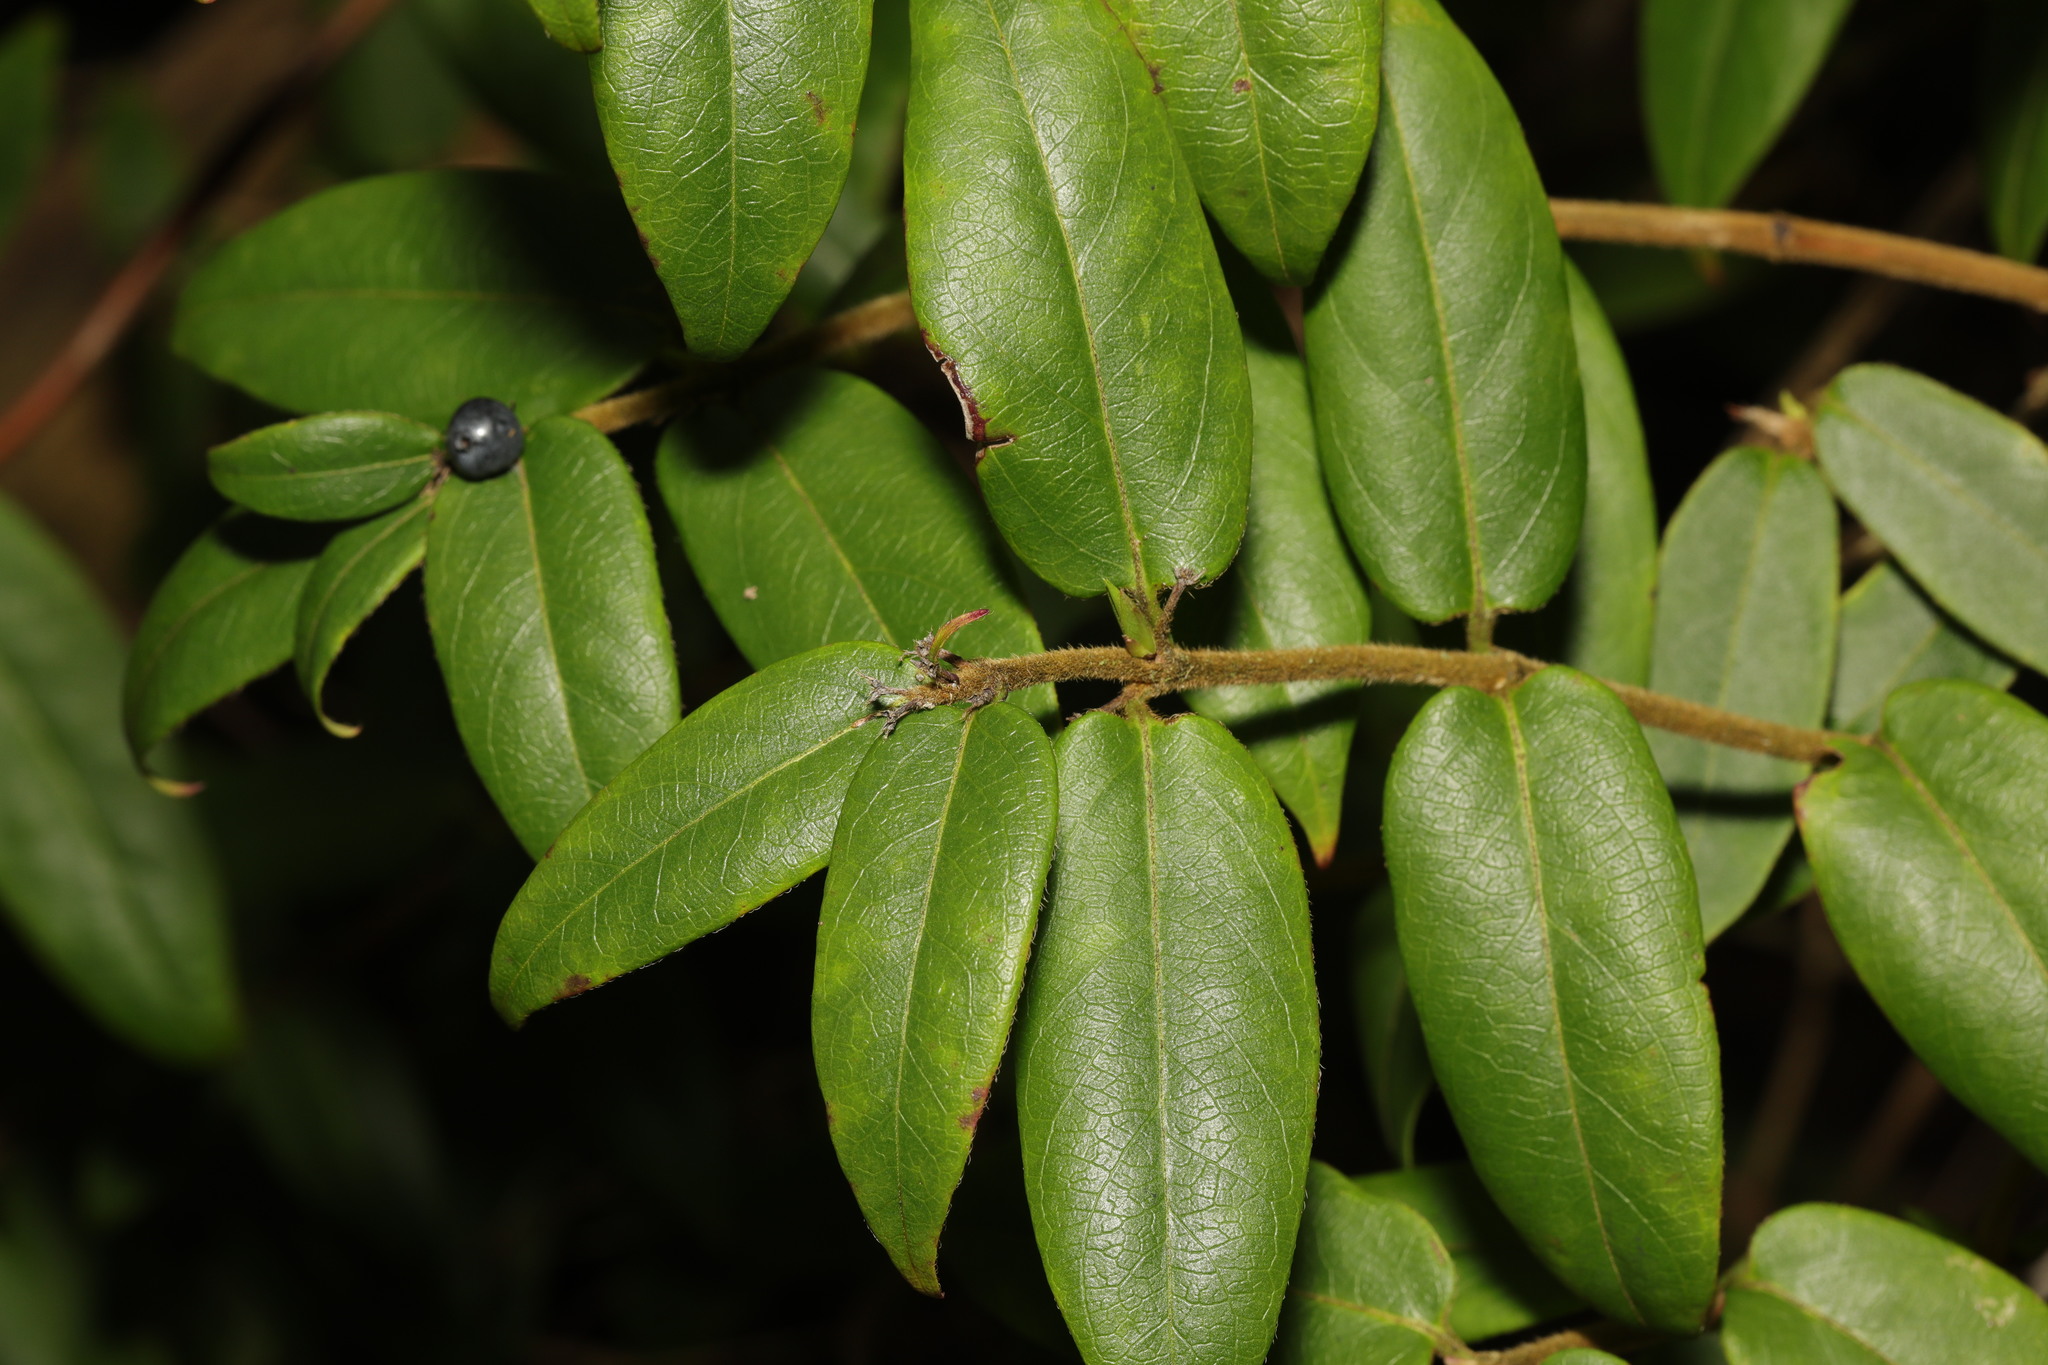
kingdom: Plantae
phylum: Tracheophyta
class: Magnoliopsida
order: Dipsacales
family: Caprifoliaceae
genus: Lonicera
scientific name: Lonicera acuminata
